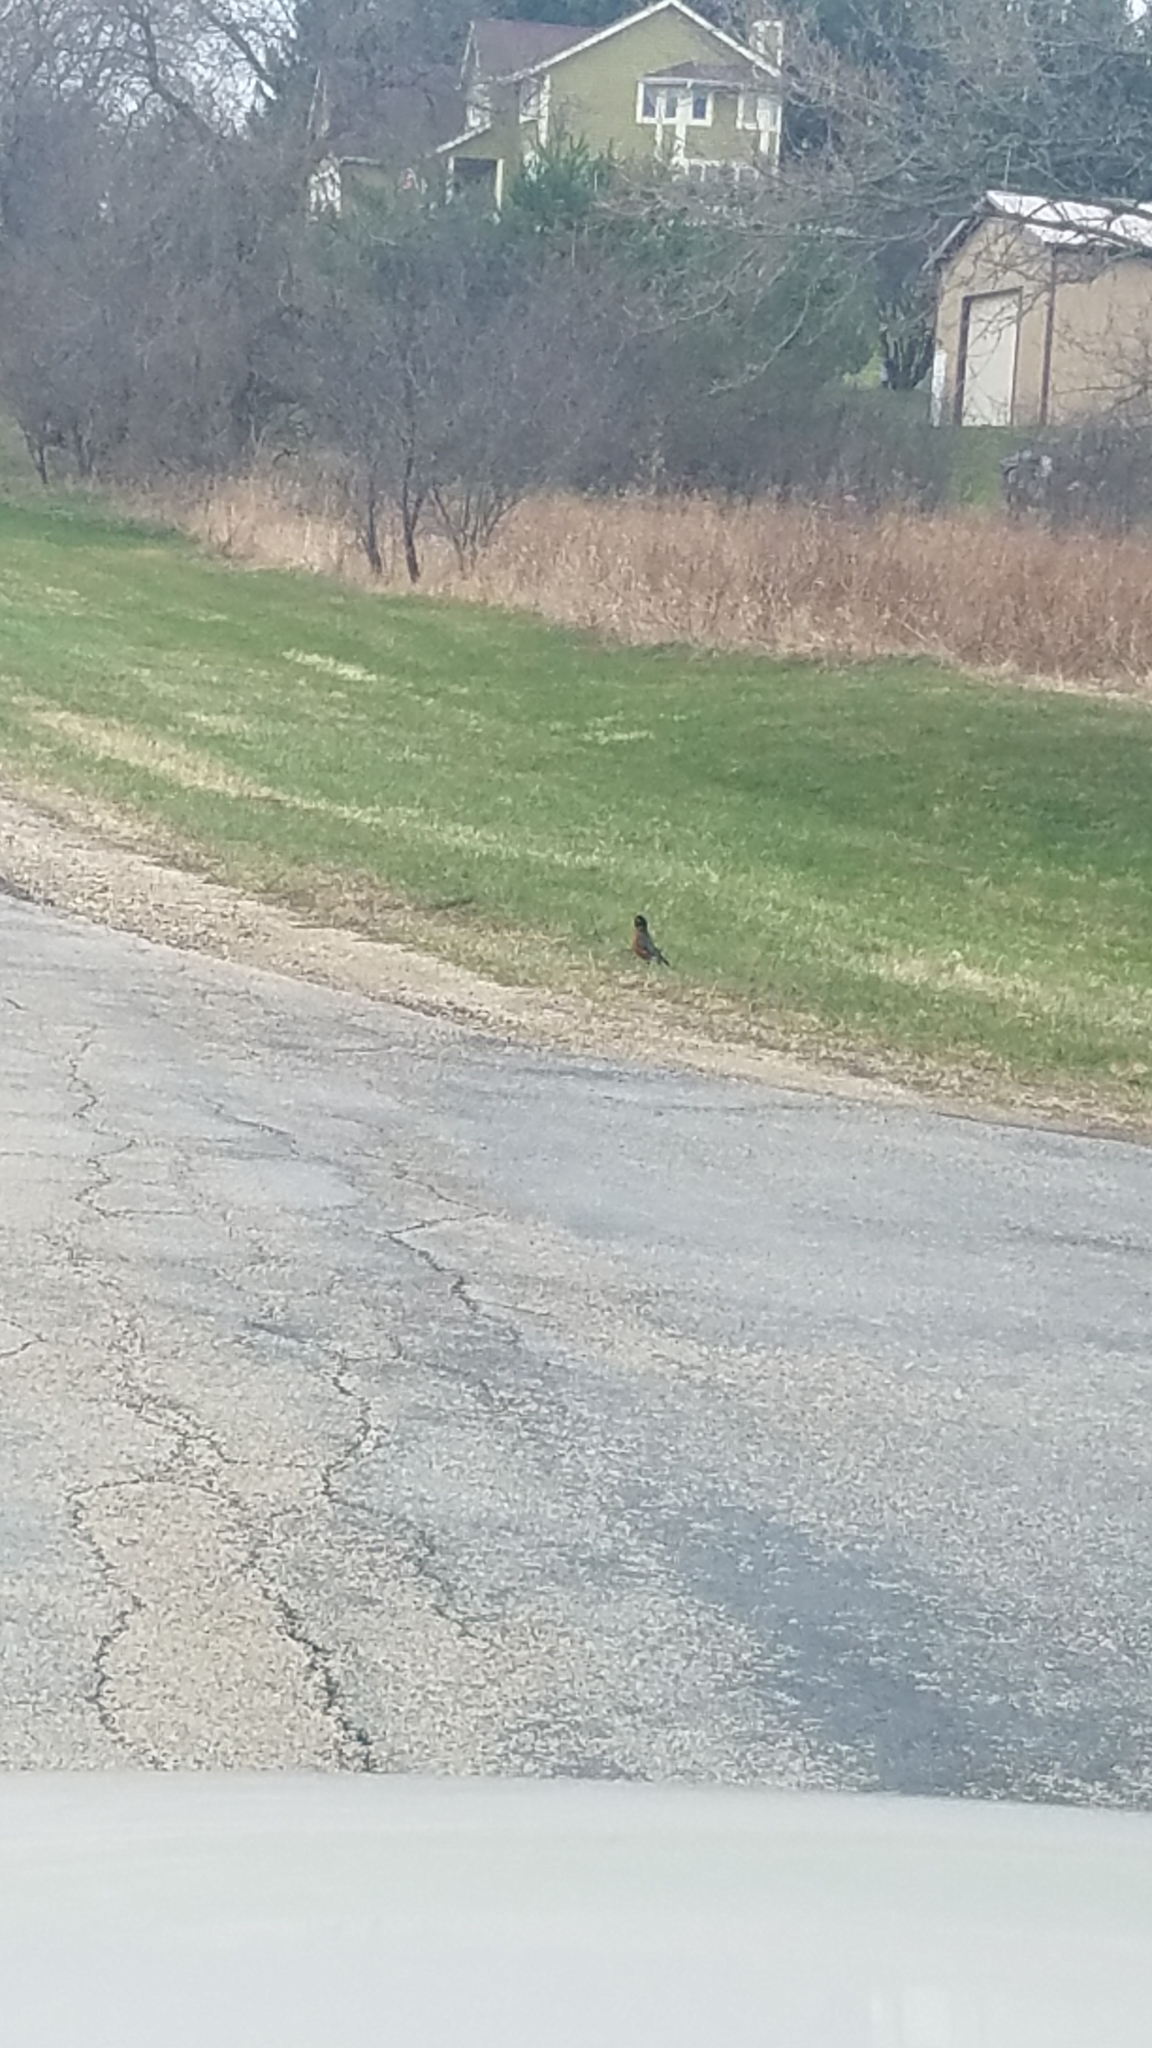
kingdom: Animalia
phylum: Chordata
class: Aves
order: Passeriformes
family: Turdidae
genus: Turdus
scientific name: Turdus migratorius
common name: American robin
